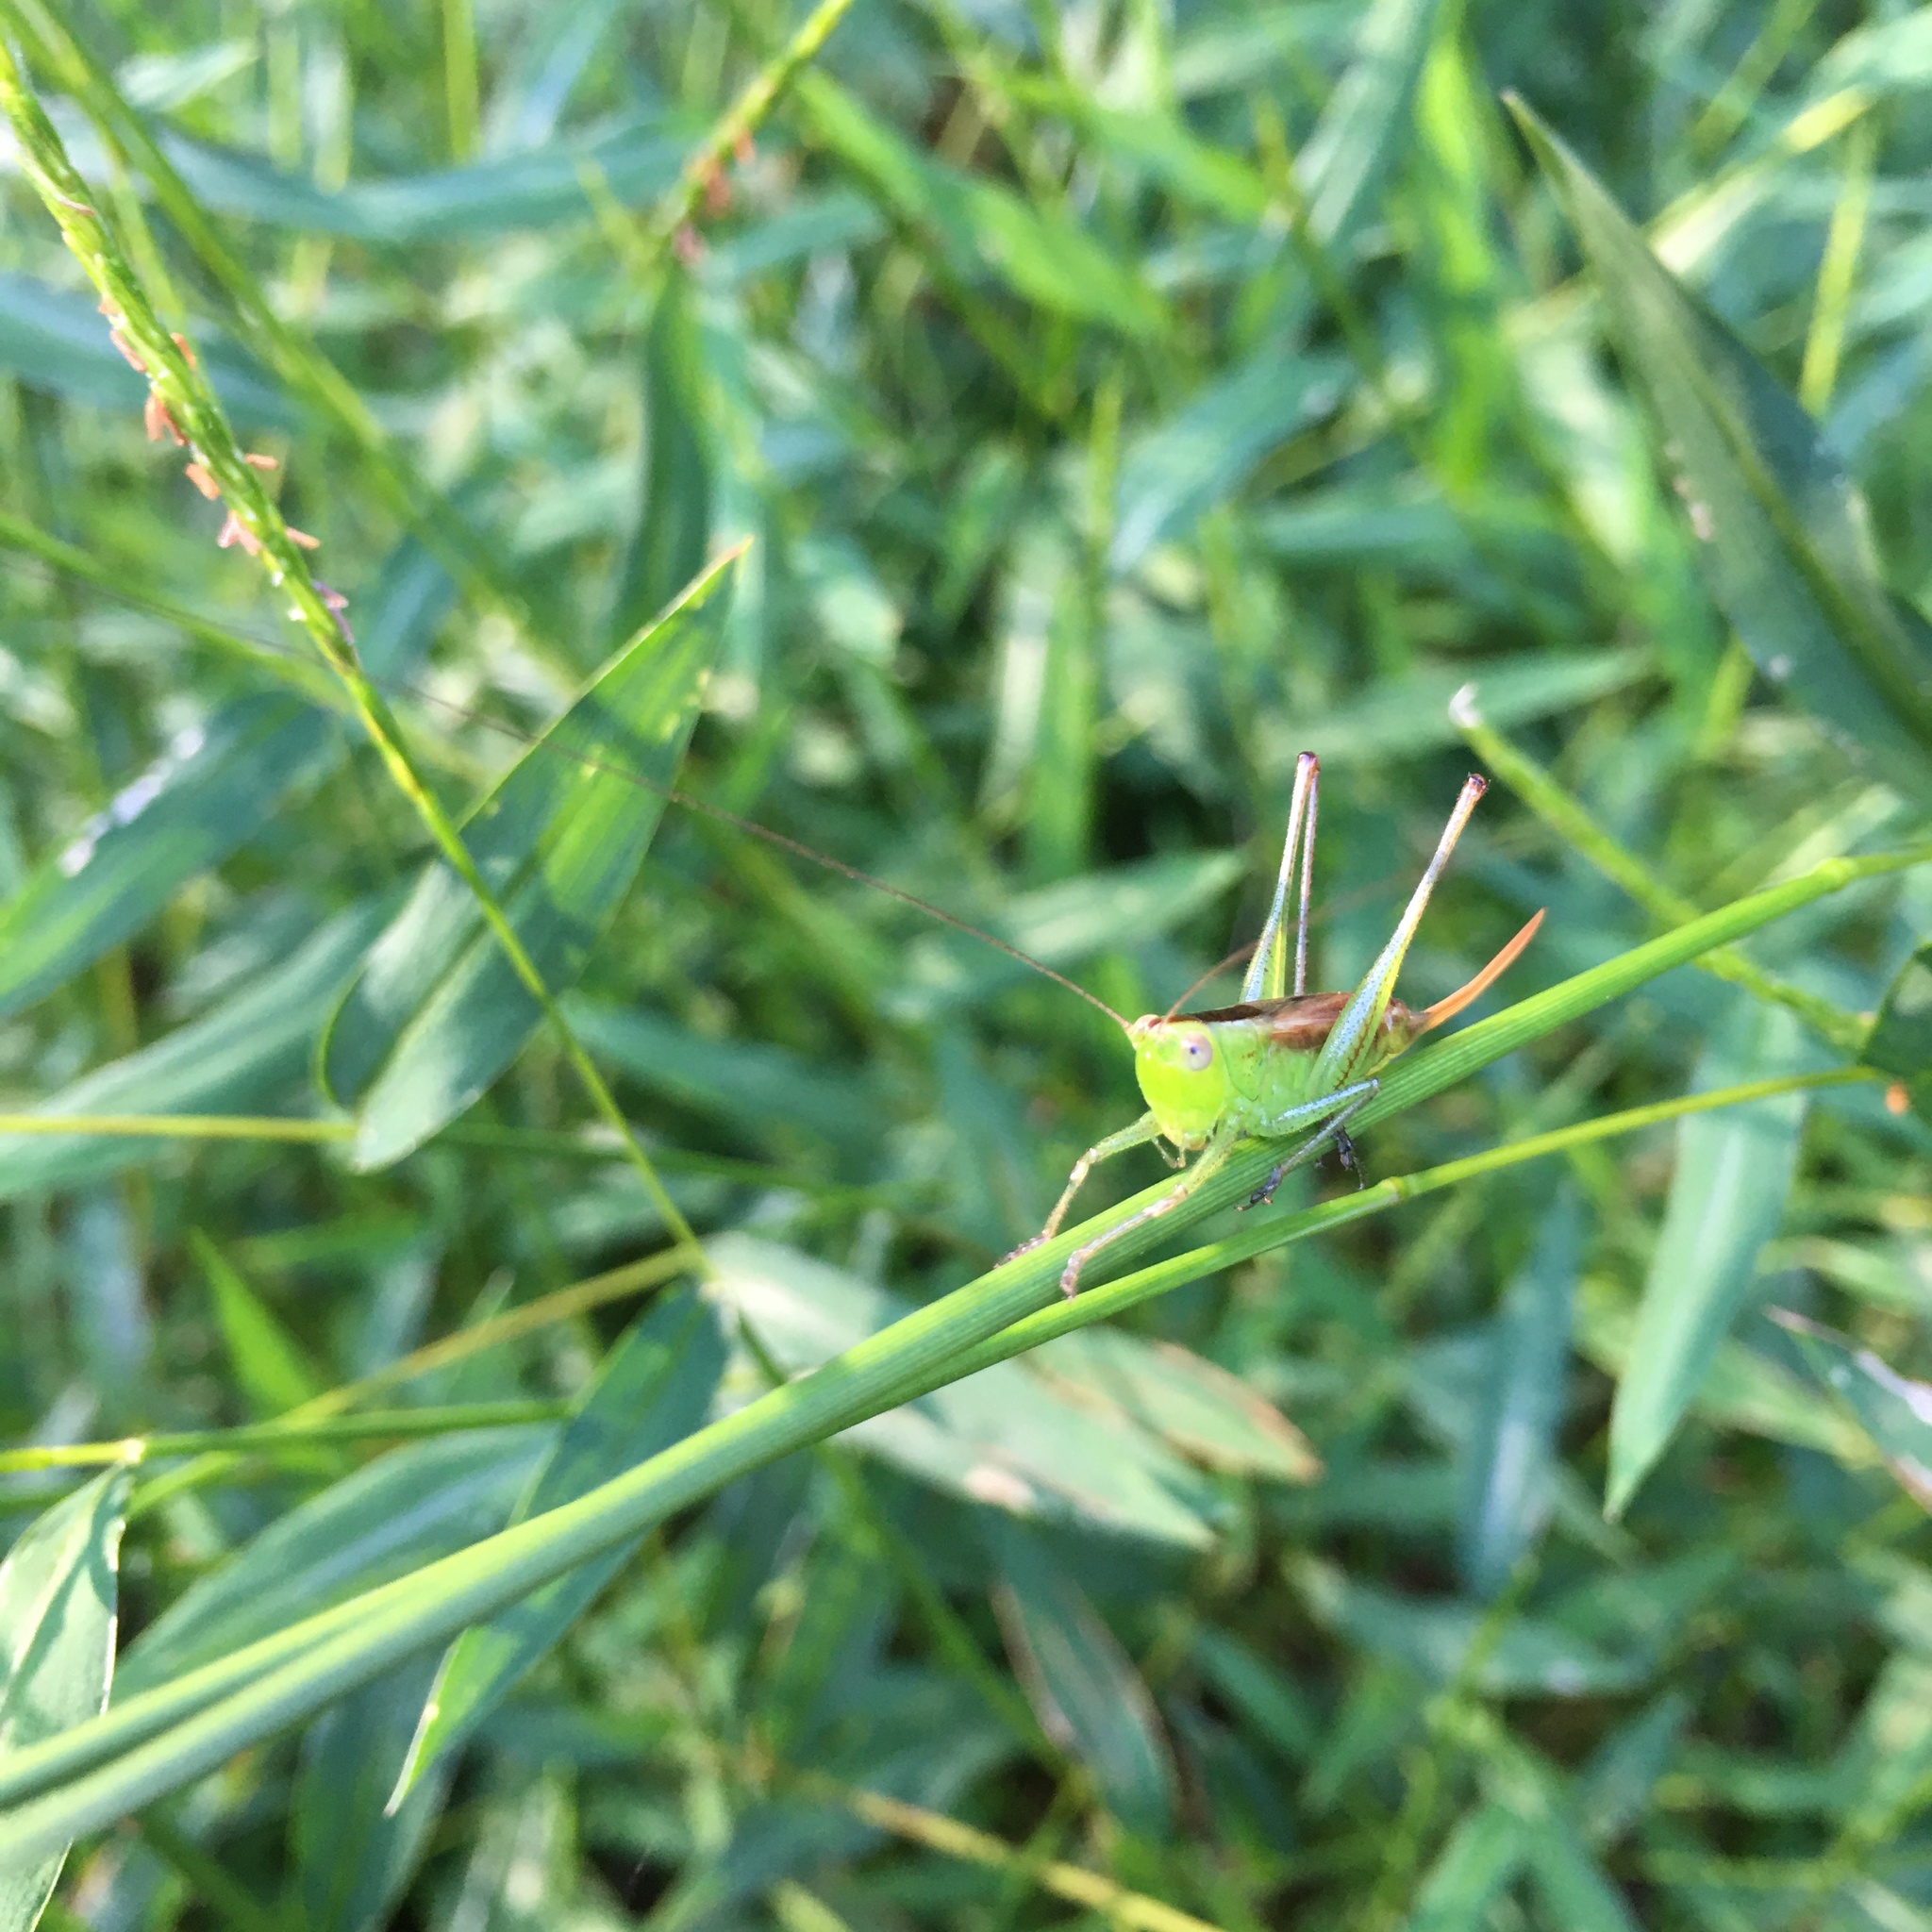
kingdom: Animalia
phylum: Arthropoda
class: Insecta
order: Orthoptera
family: Tettigoniidae
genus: Conocephalus
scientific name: Conocephalus brevipennis
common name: Short-winged meadow katydid
